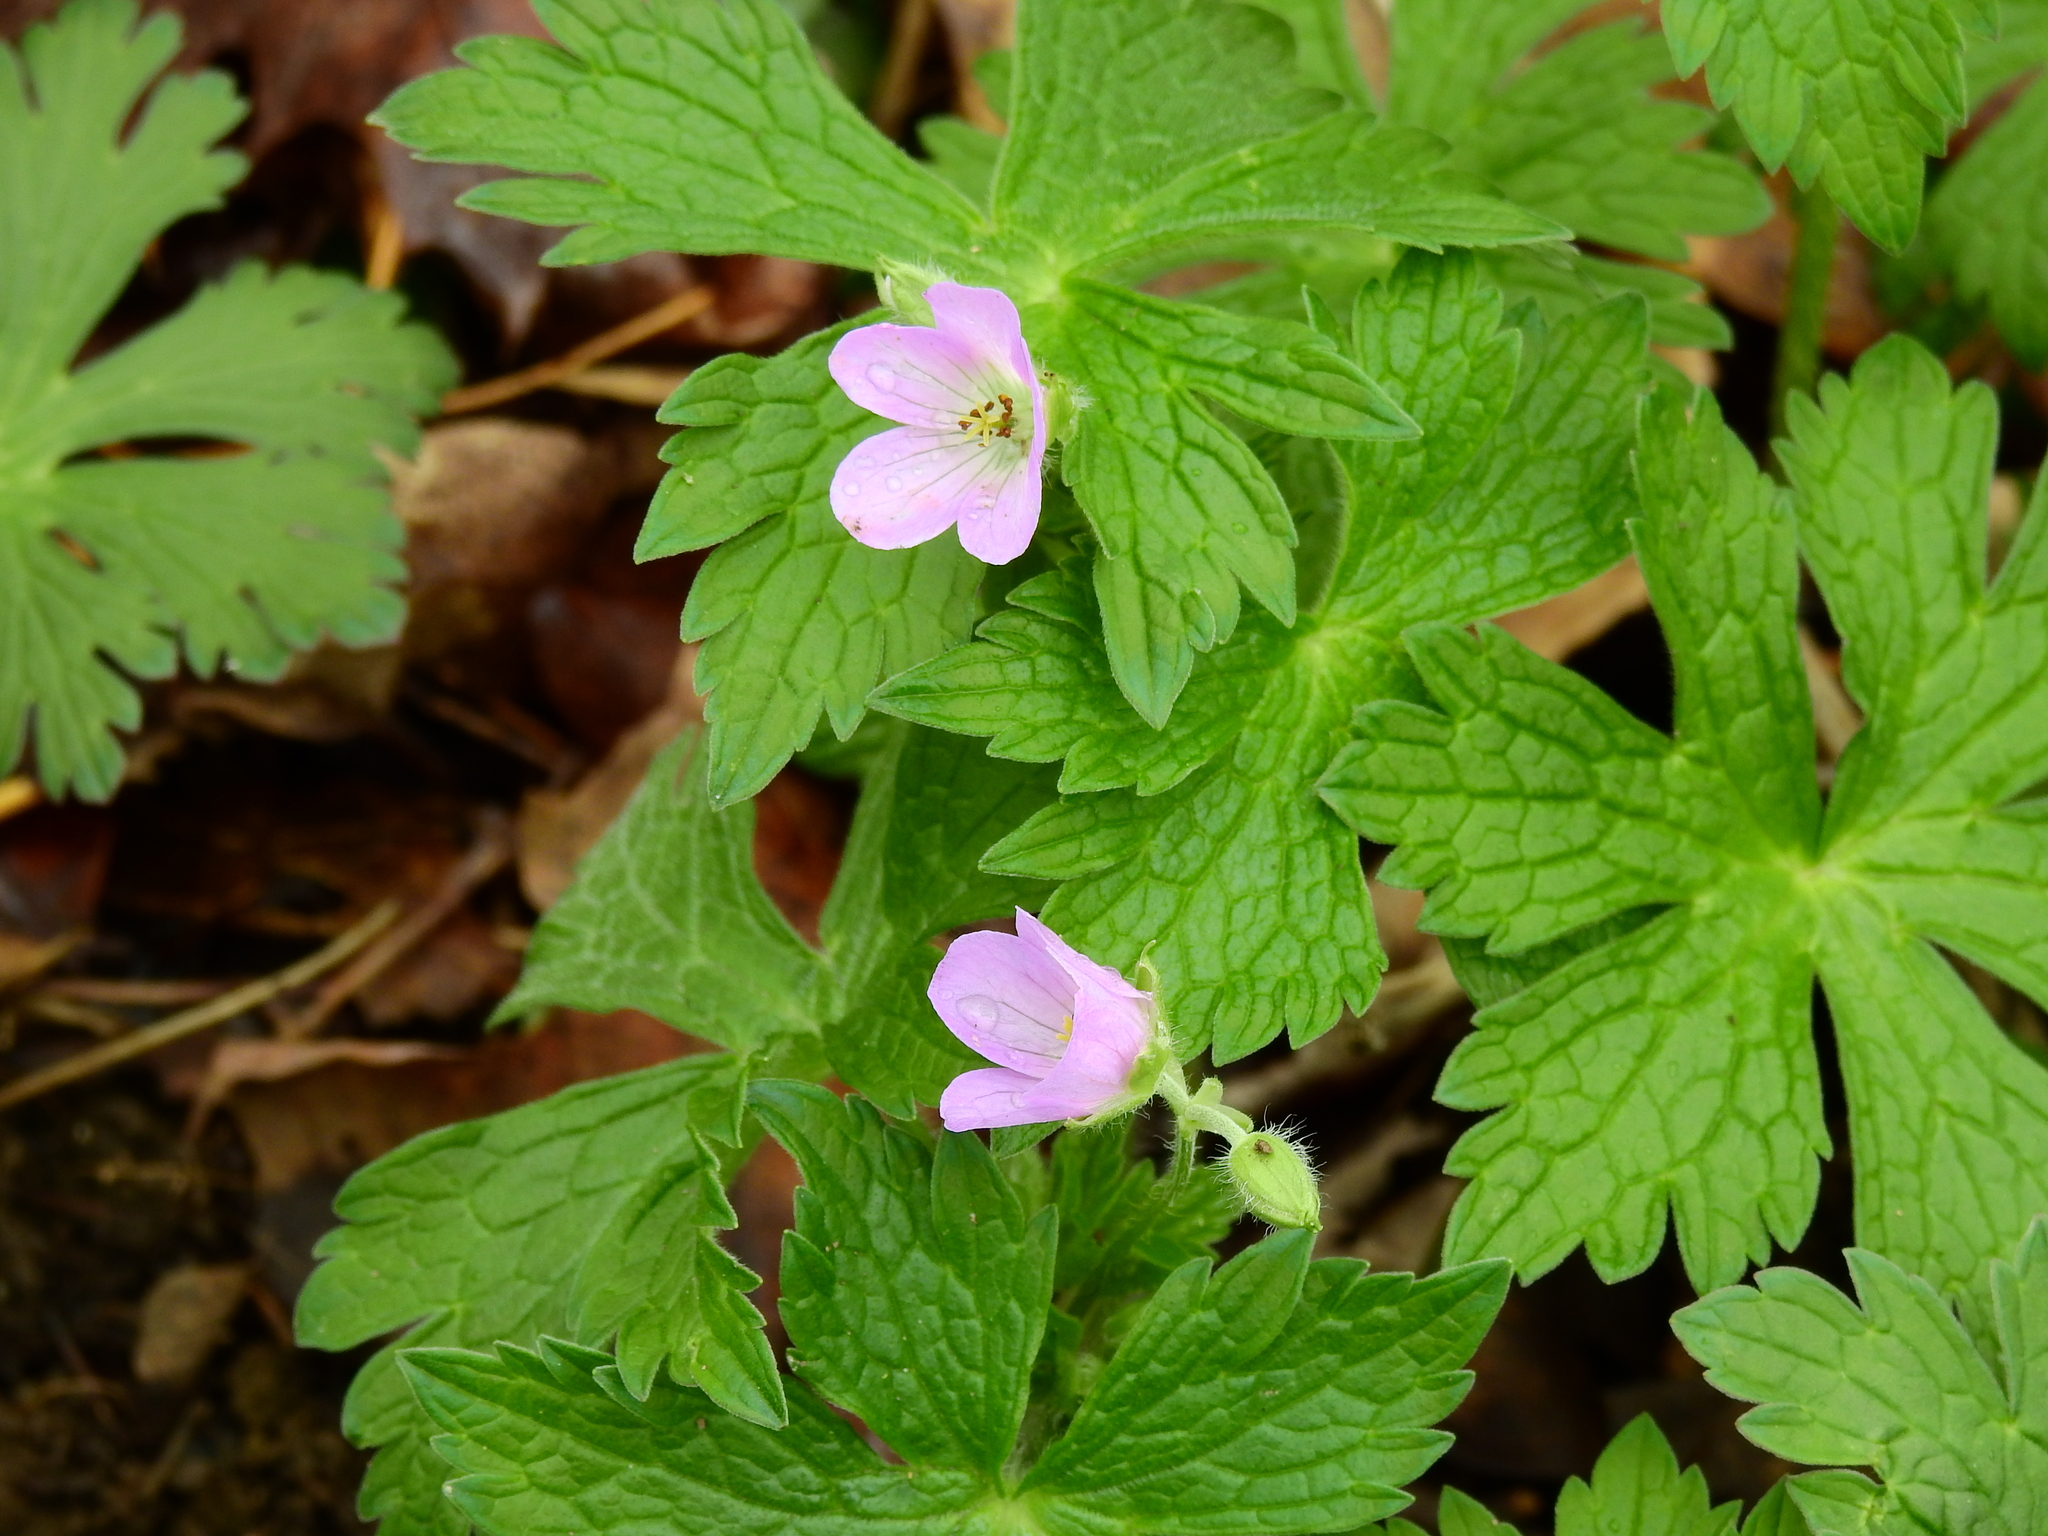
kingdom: Plantae
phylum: Tracheophyta
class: Magnoliopsida
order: Geraniales
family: Geraniaceae
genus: Geranium
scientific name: Geranium maculatum
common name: Spotted geranium
